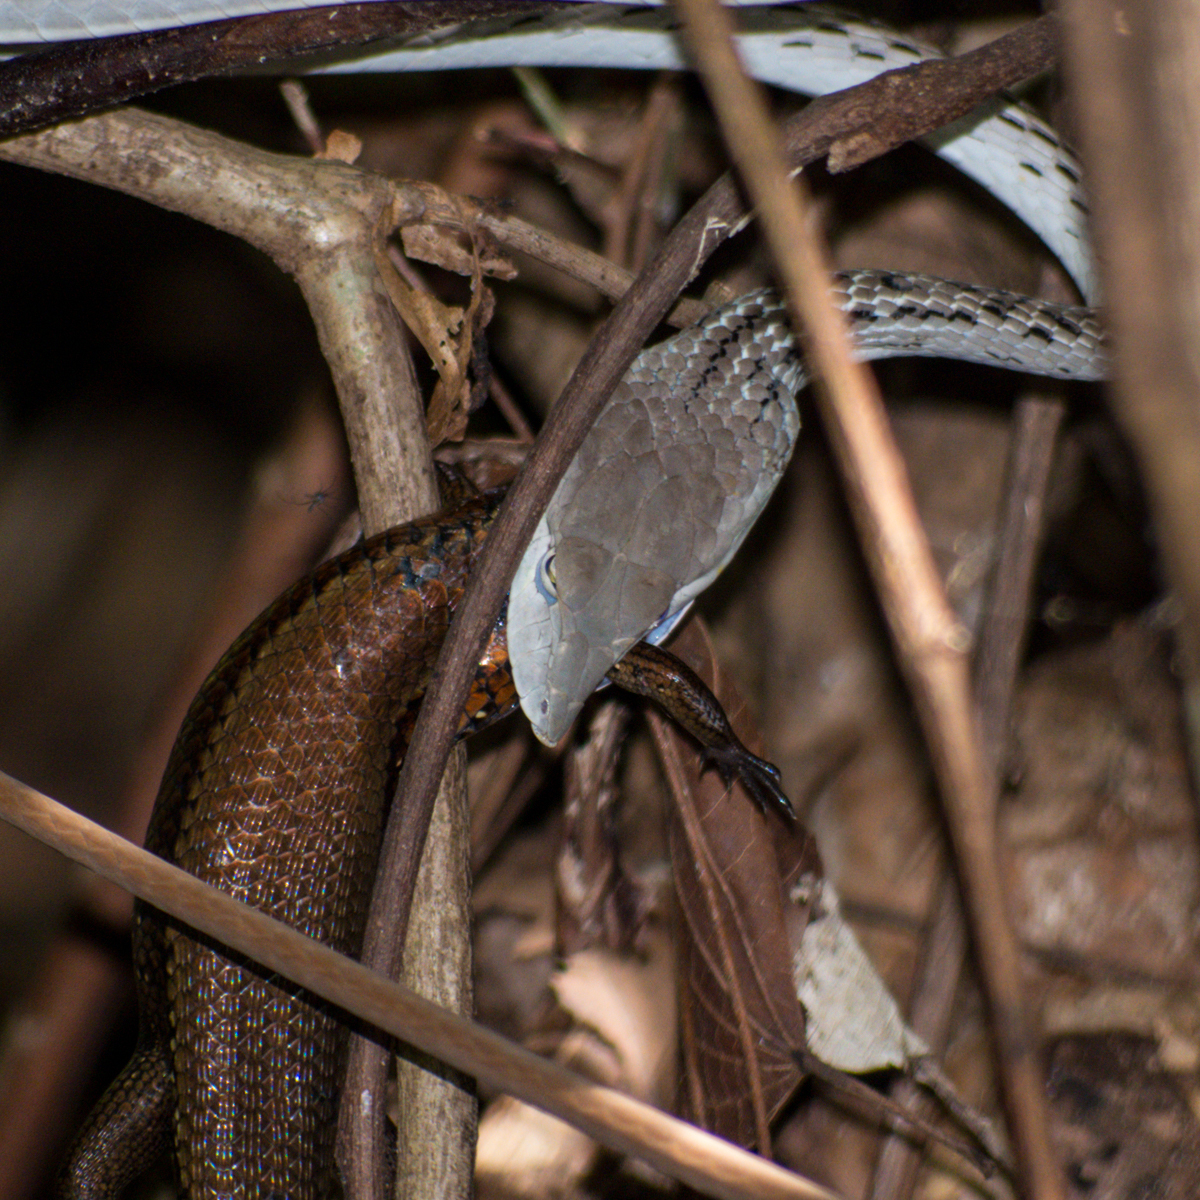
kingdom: Animalia
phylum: Chordata
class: Squamata
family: Colubridae
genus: Ahaetulla
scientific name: Ahaetulla prasina
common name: Oriental whip snake
